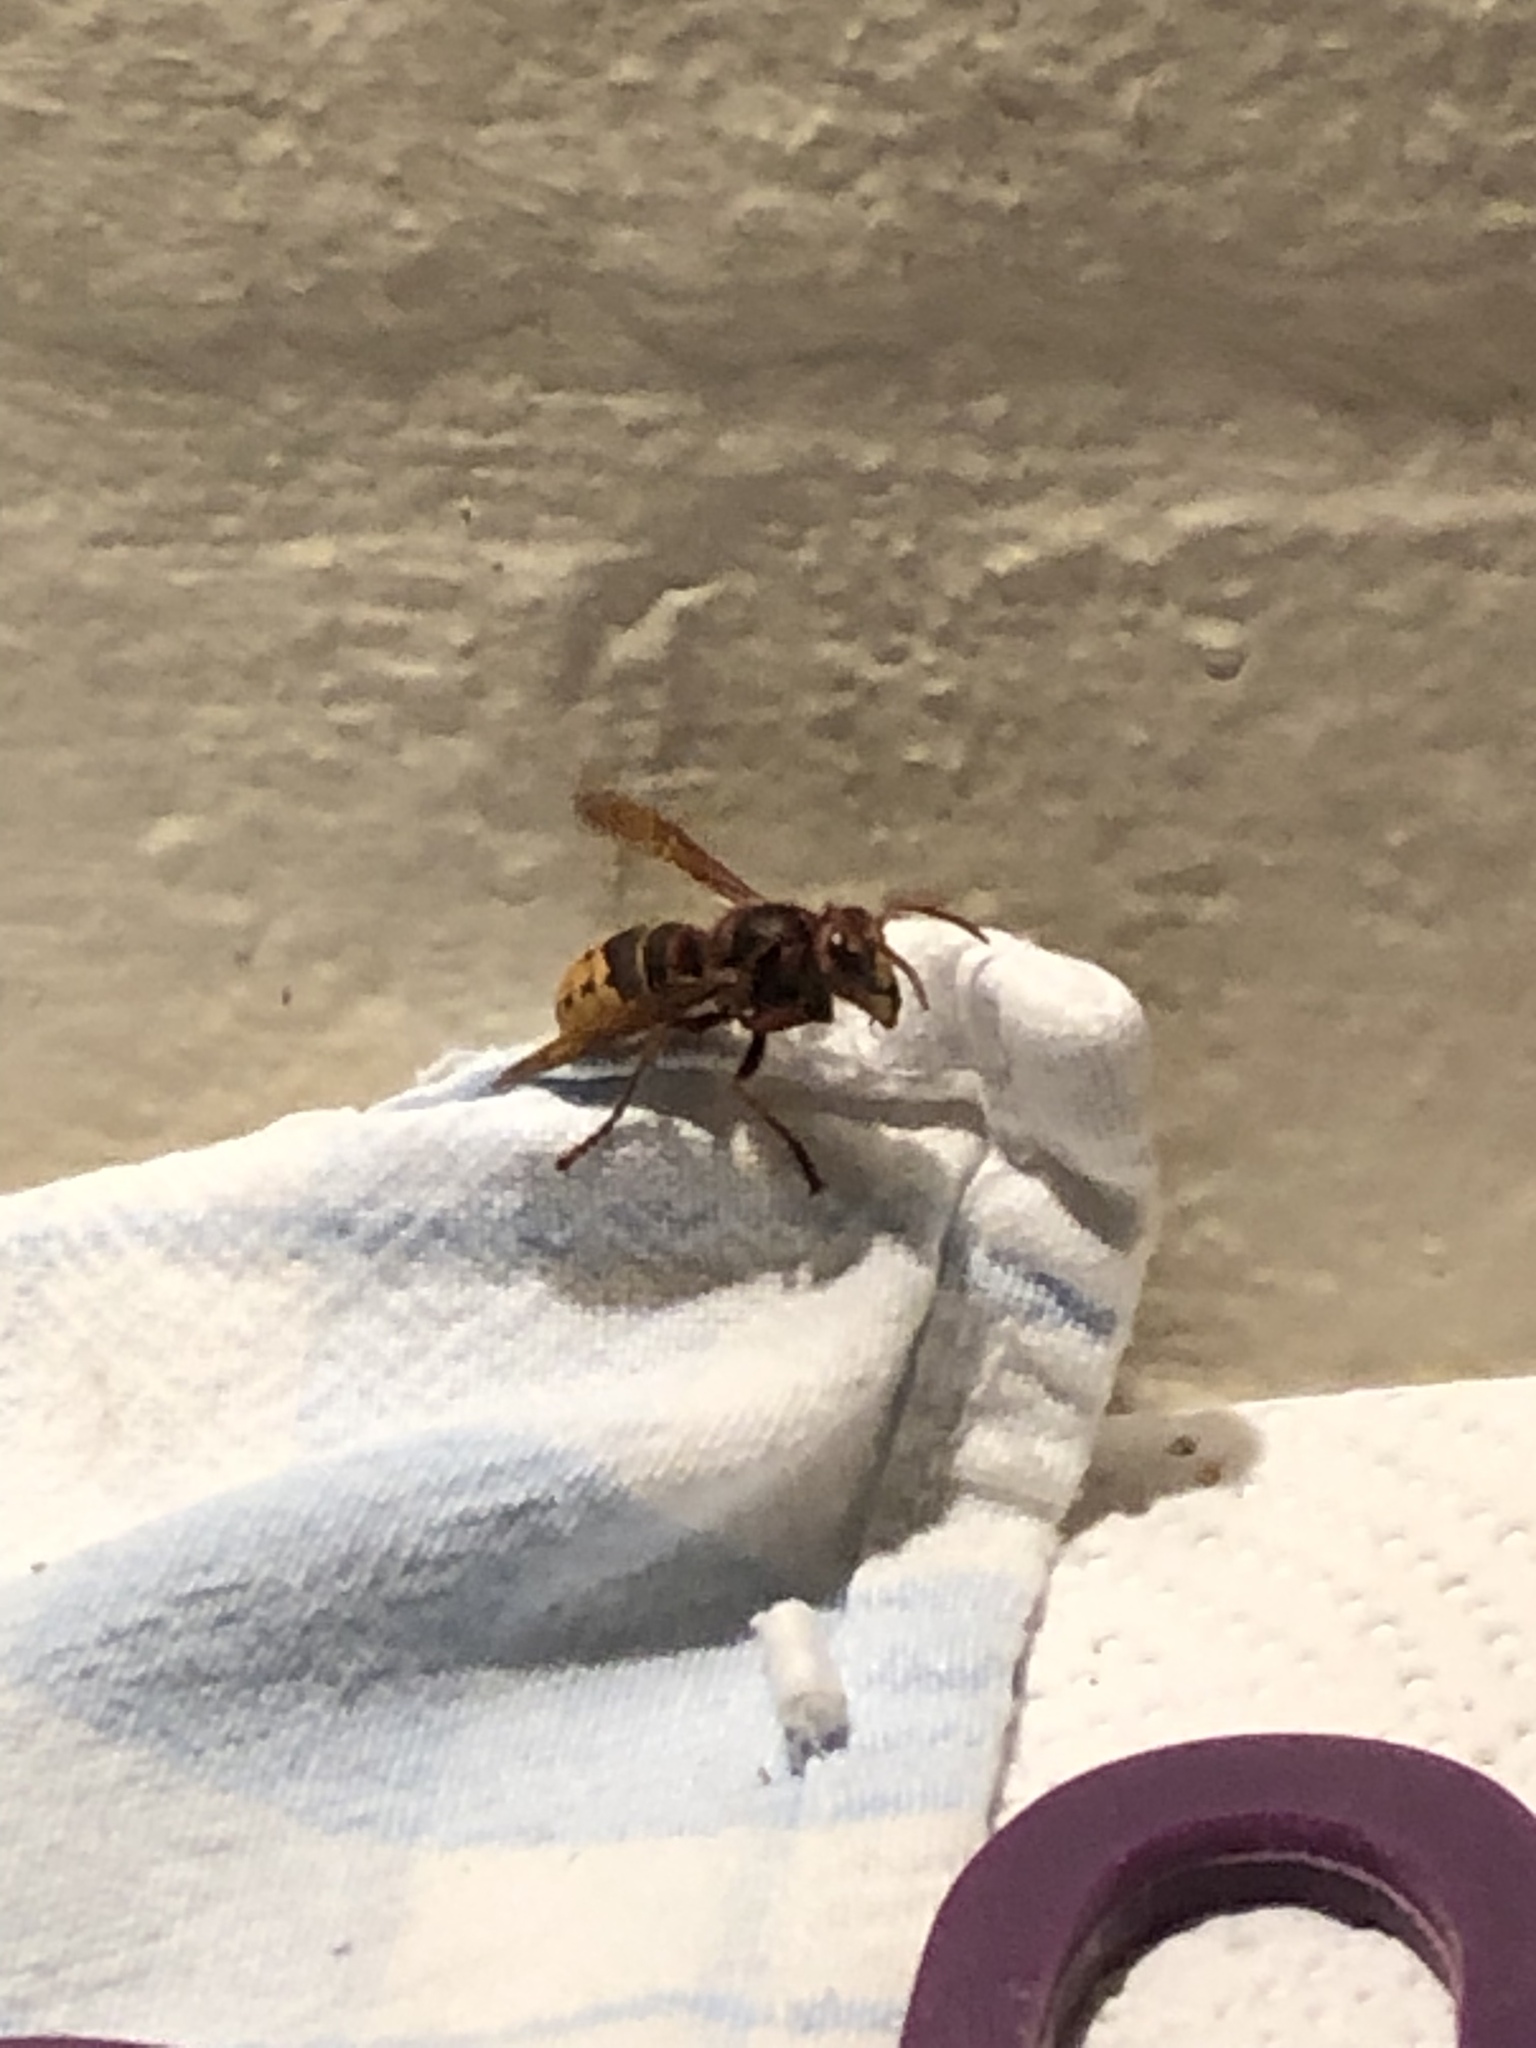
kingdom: Animalia
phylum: Arthropoda
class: Insecta
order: Hymenoptera
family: Vespidae
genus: Vespa
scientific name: Vespa crabro
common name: Hornet
